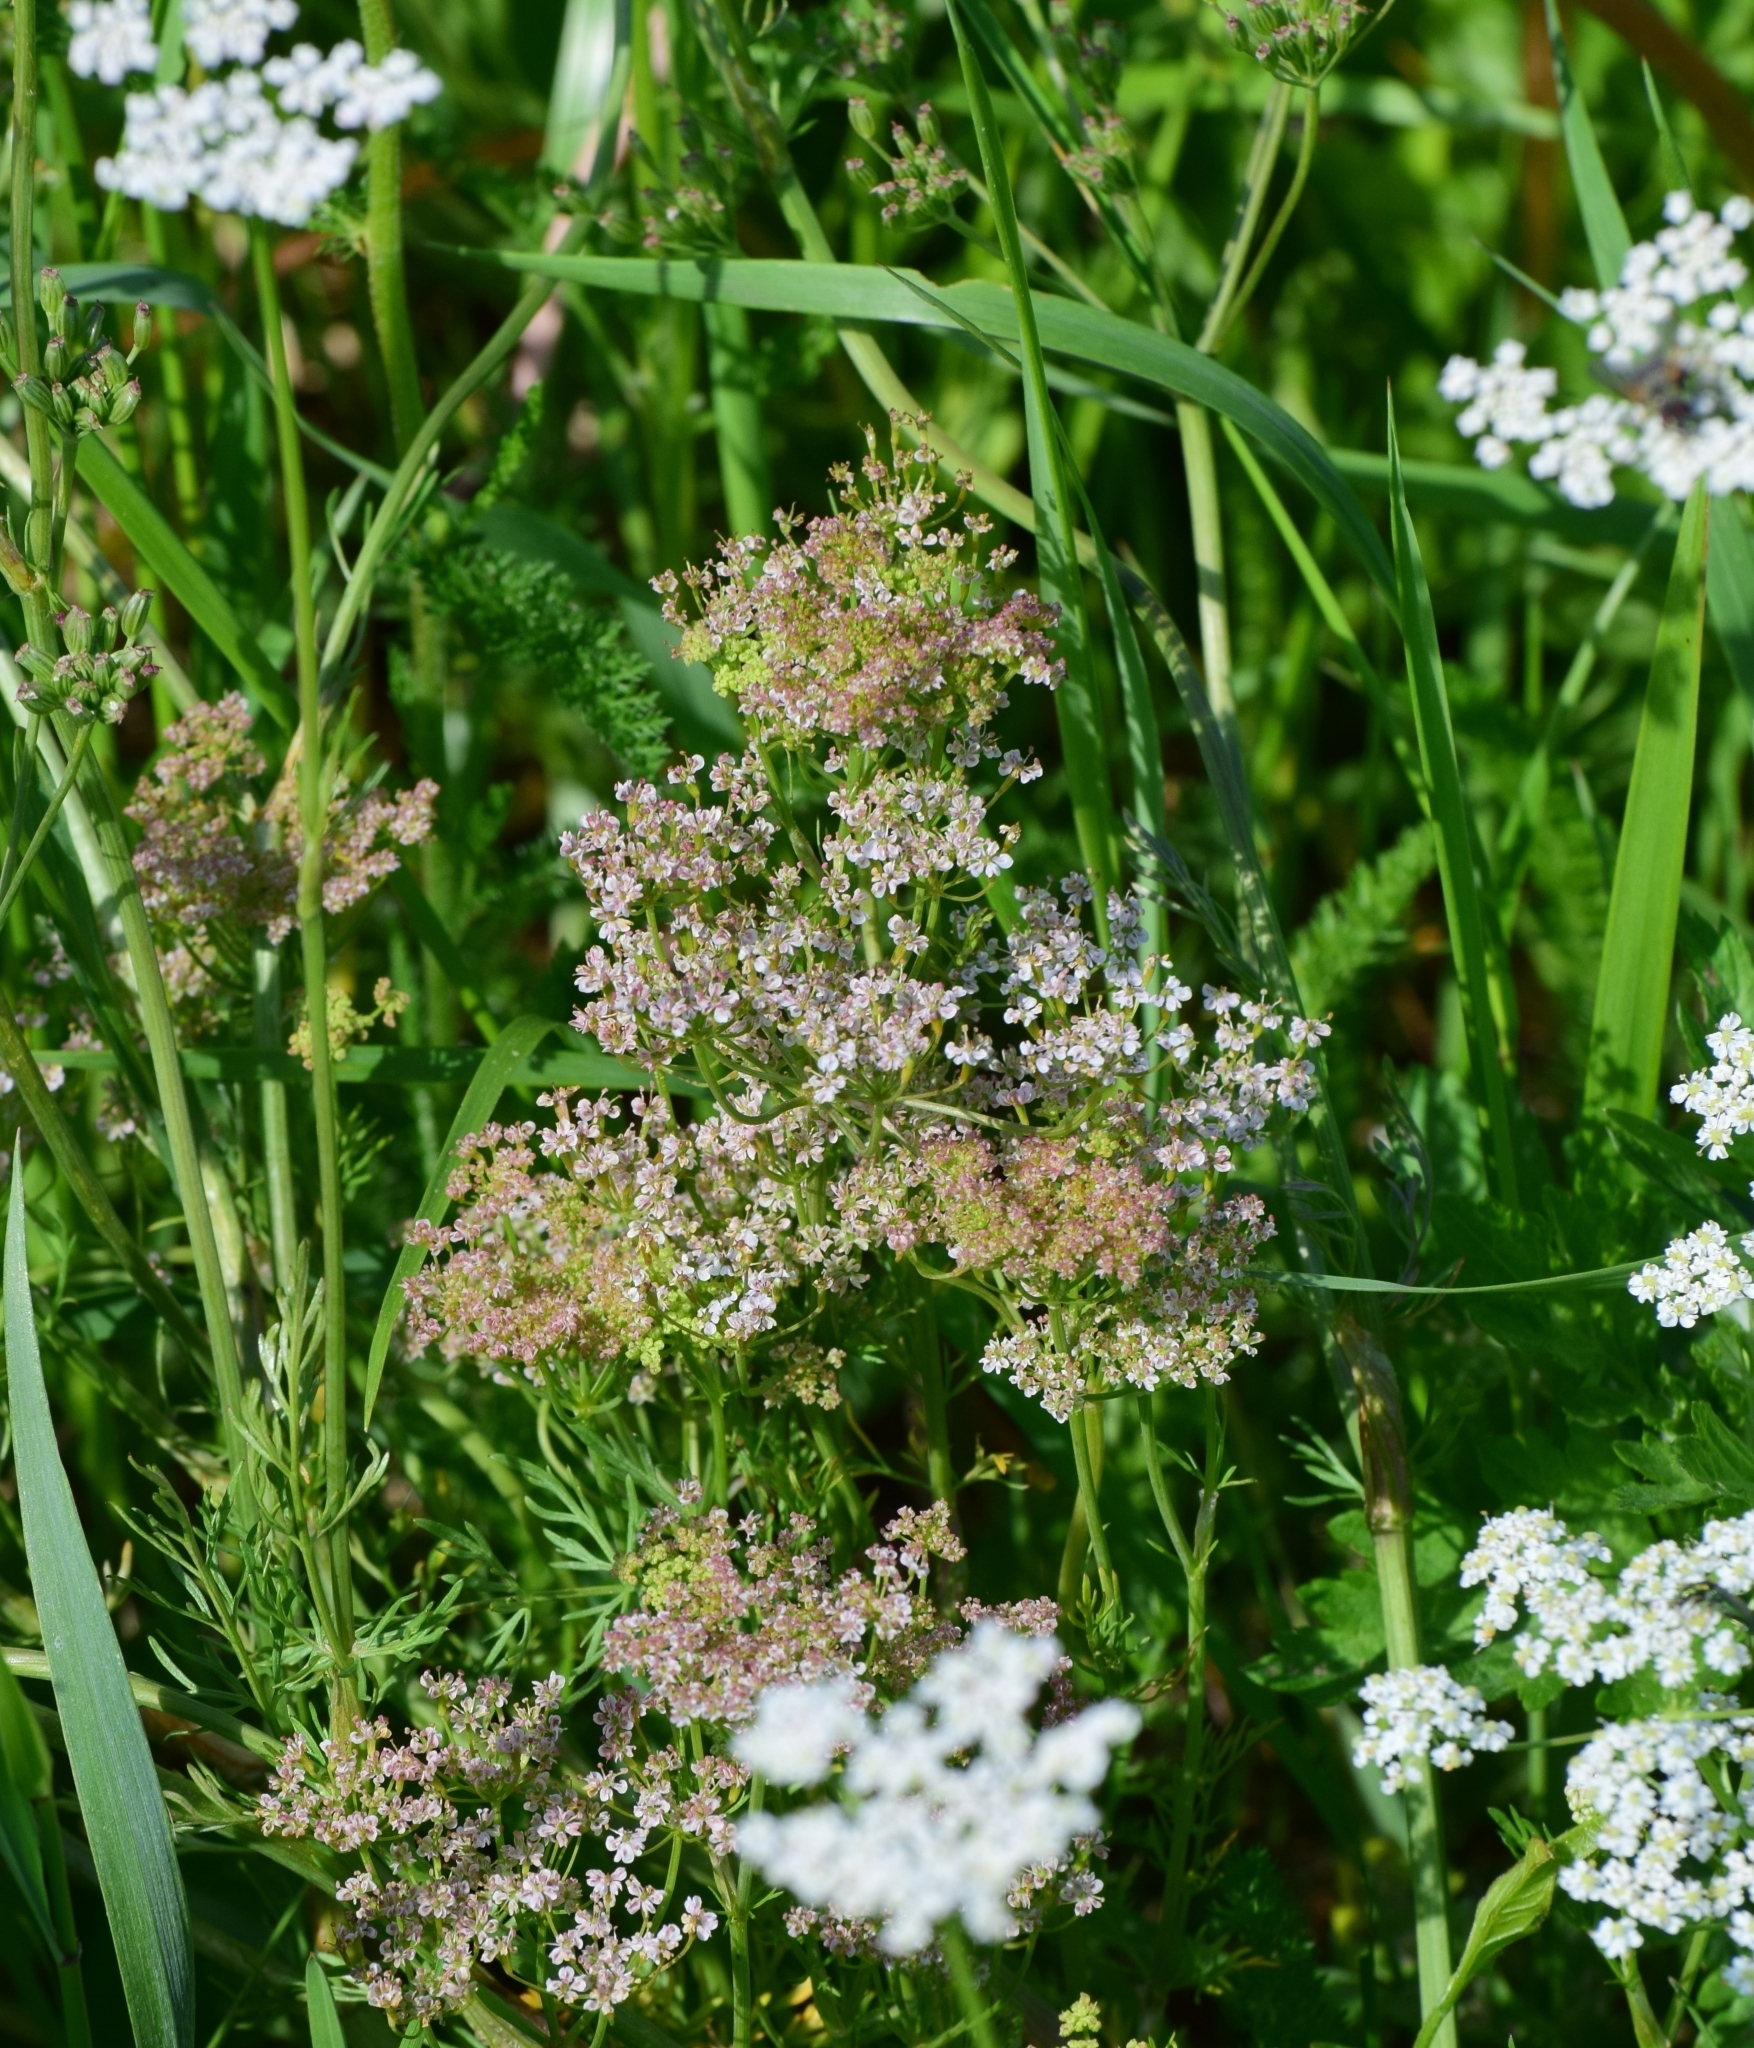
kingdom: Plantae
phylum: Tracheophyta
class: Magnoliopsida
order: Apiales
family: Apiaceae
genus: Carum
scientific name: Carum carvi
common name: Caraway
